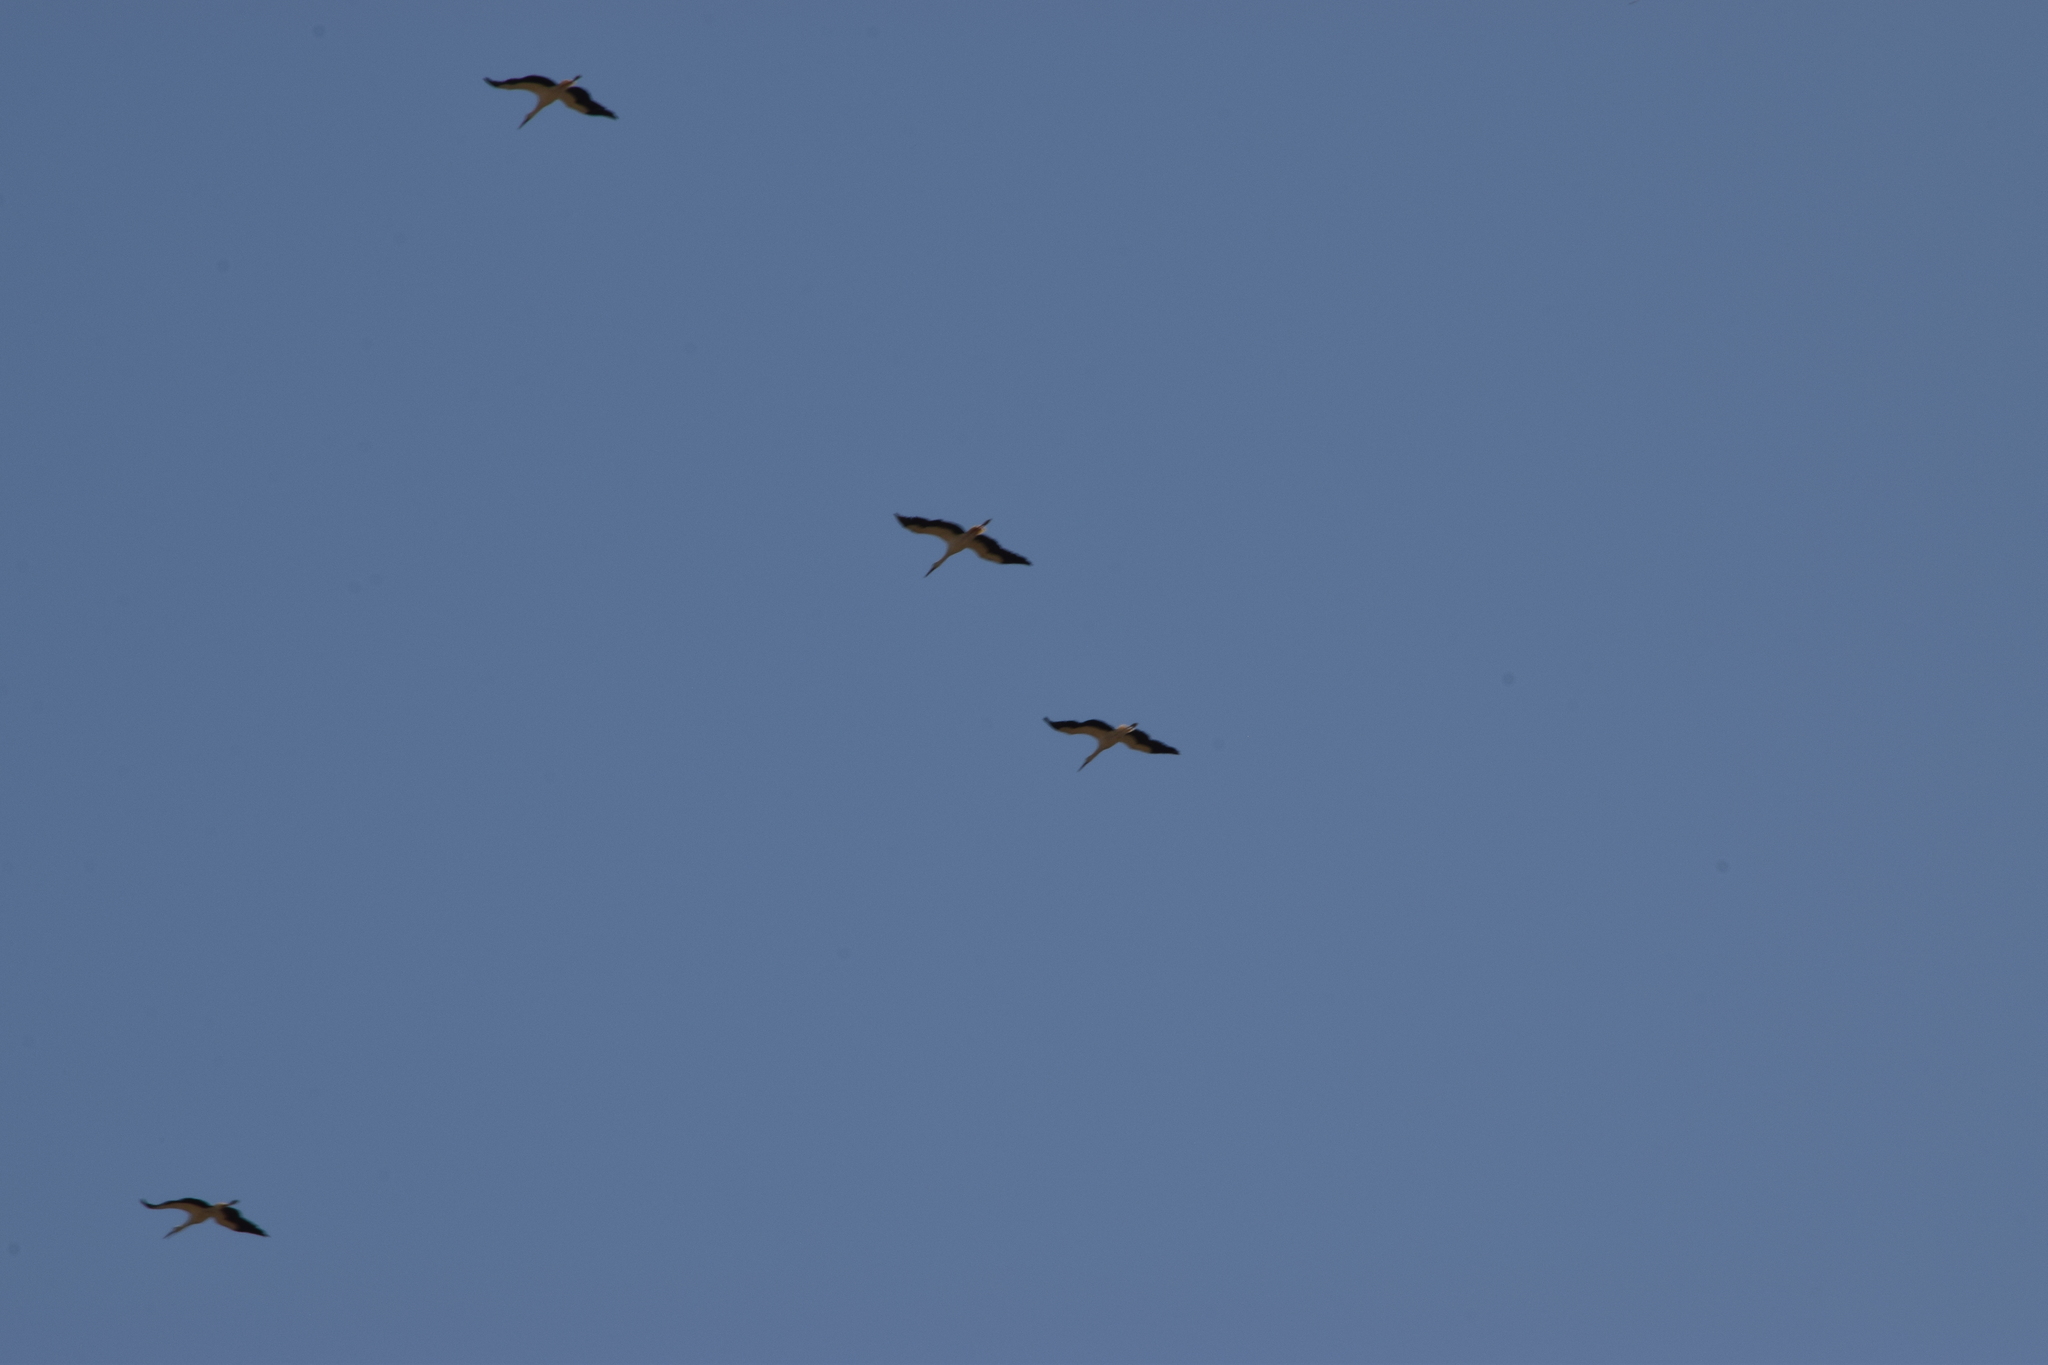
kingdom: Animalia
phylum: Chordata
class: Aves
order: Ciconiiformes
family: Ciconiidae
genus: Ciconia
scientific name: Ciconia ciconia
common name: White stork
